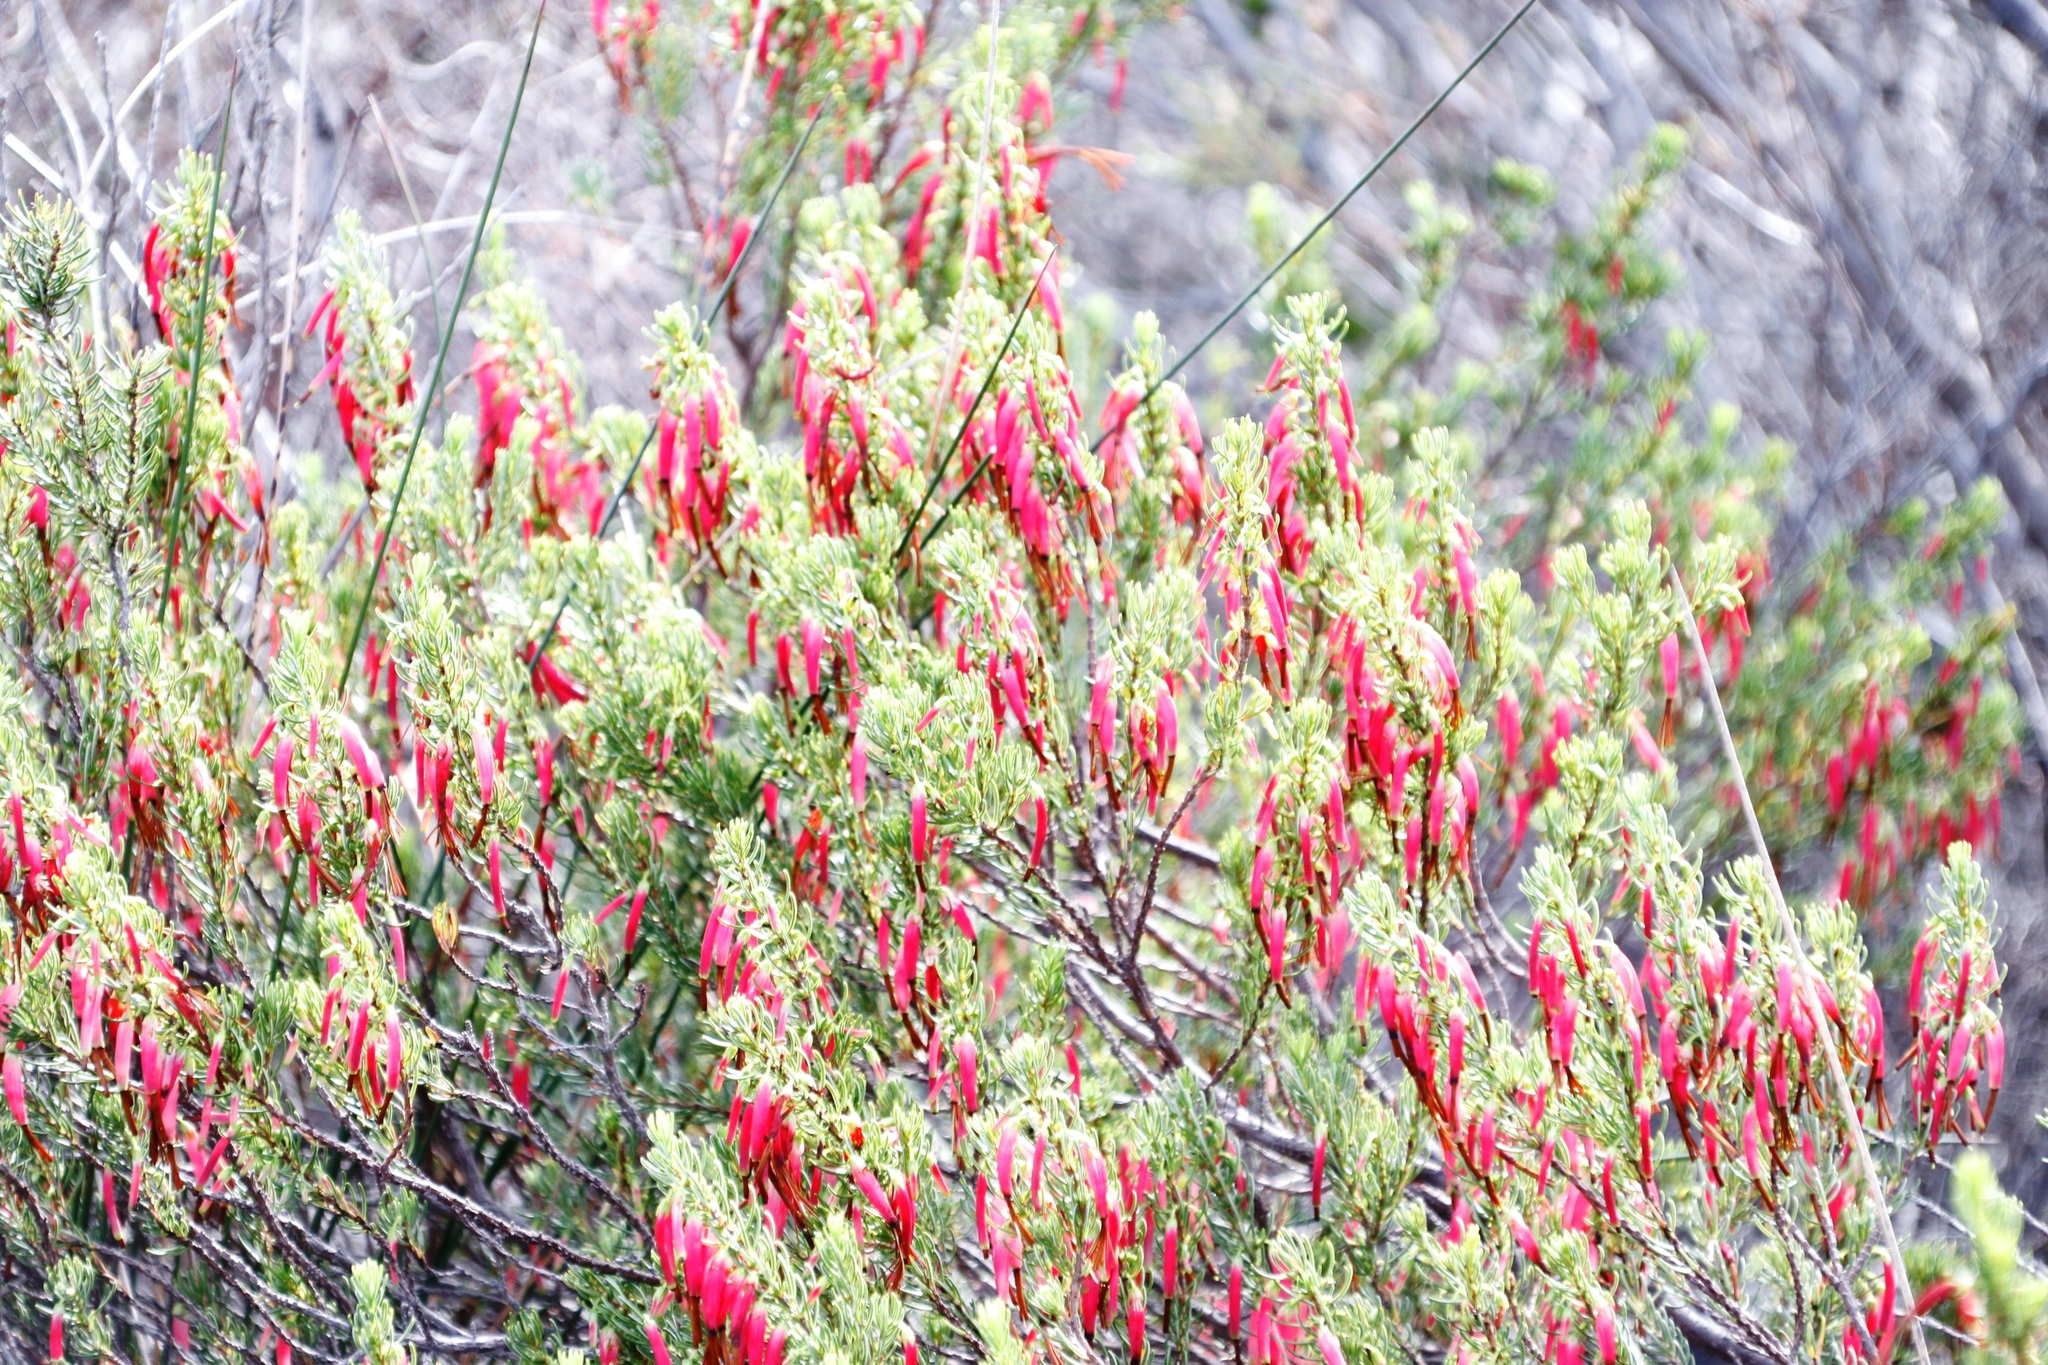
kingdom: Plantae
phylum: Tracheophyta
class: Magnoliopsida
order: Ericales
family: Ericaceae
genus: Erica
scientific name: Erica plukenetii
